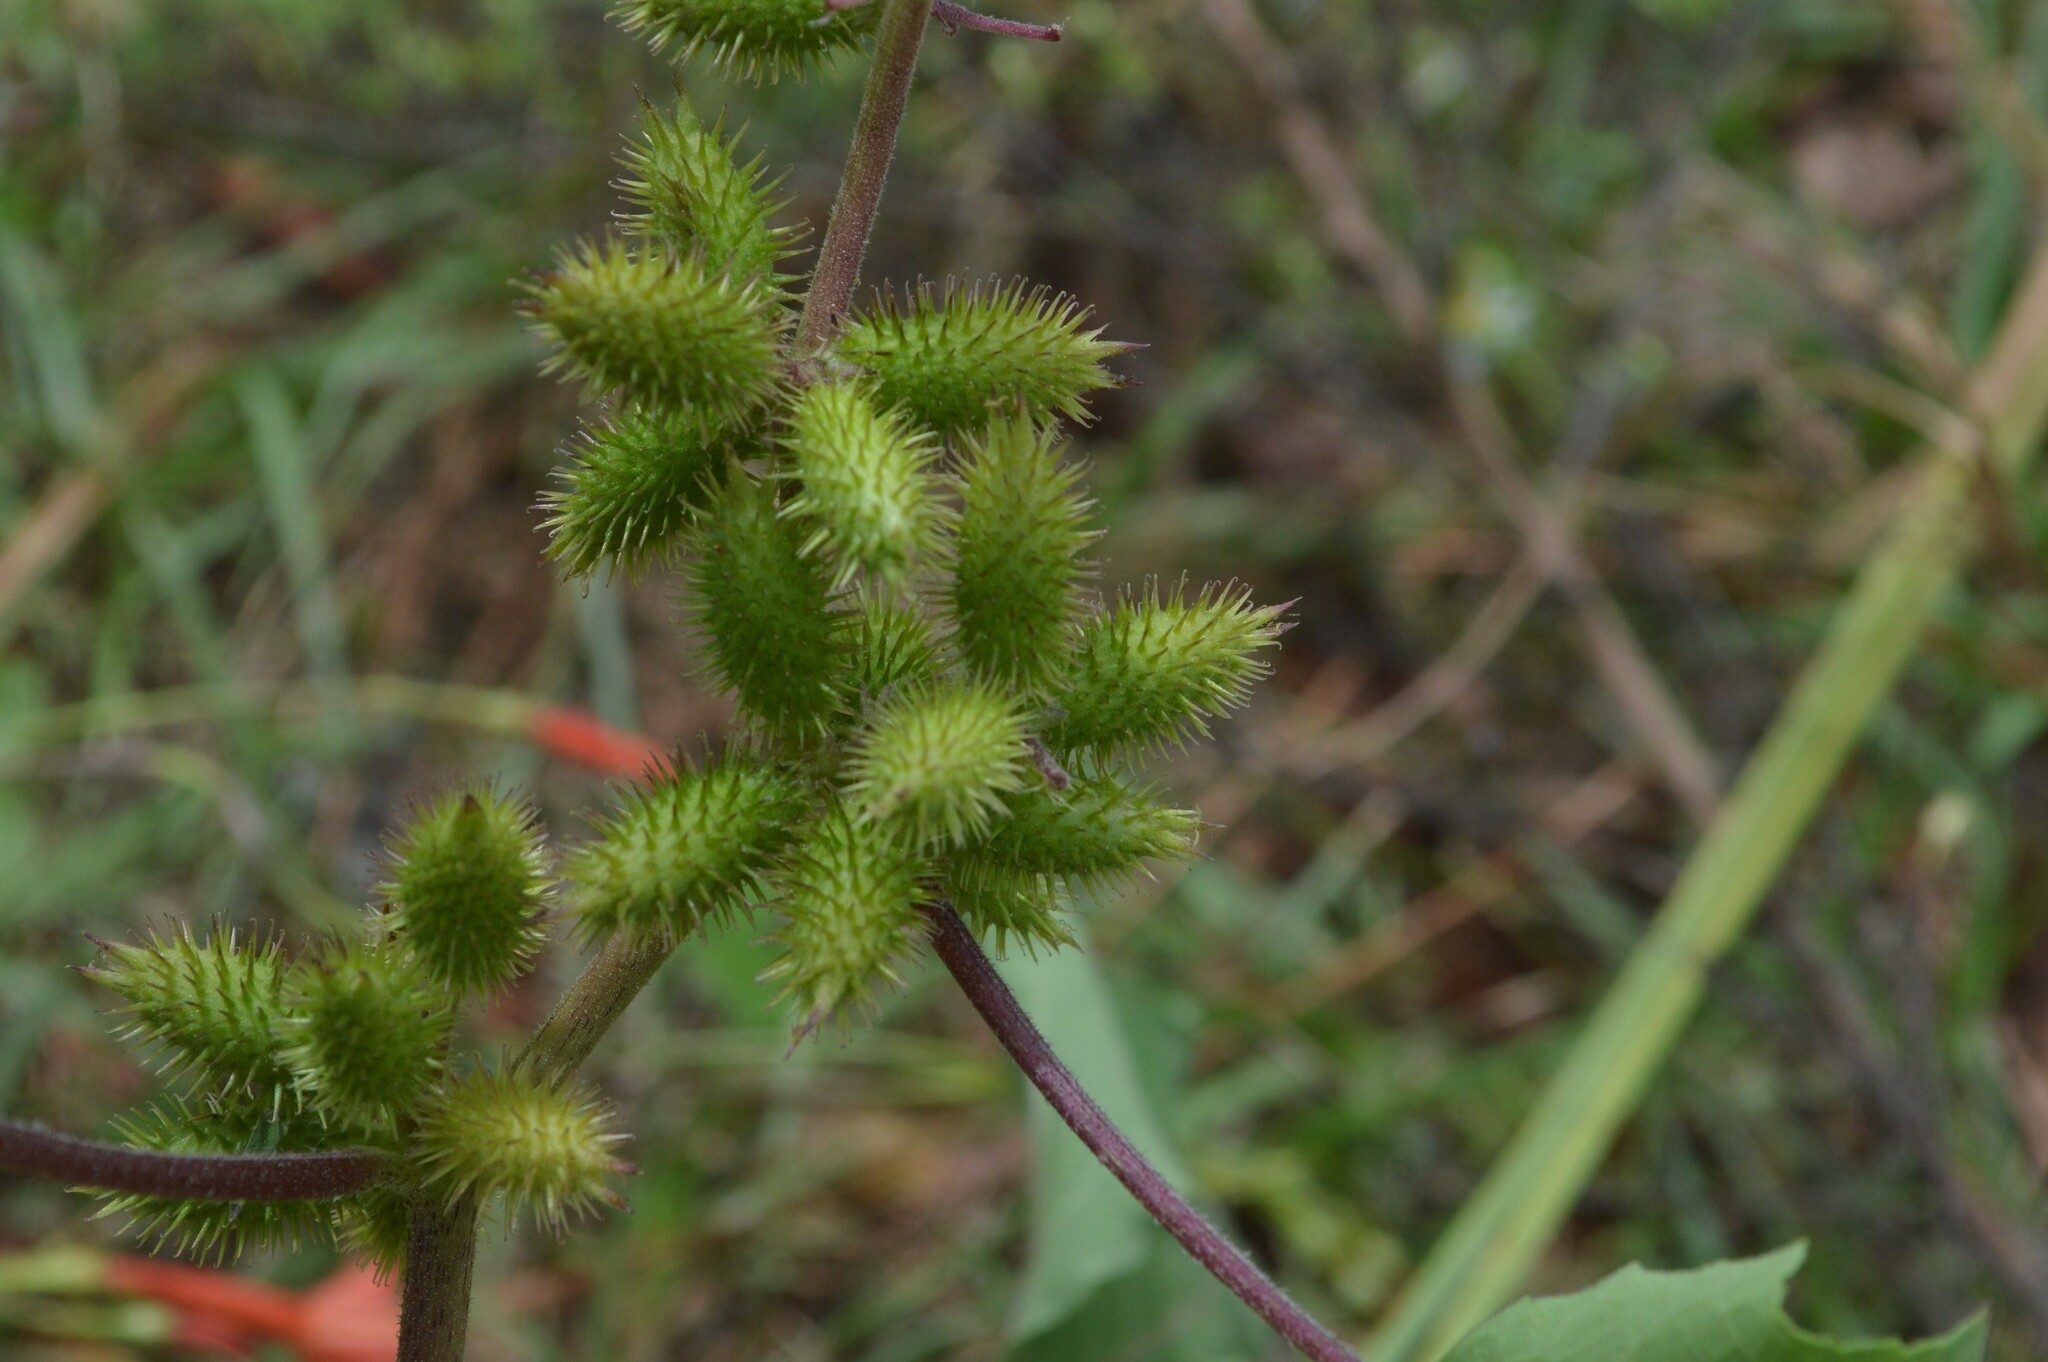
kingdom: Plantae
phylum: Tracheophyta
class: Magnoliopsida
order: Asterales
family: Asteraceae
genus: Xanthium
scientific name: Xanthium strumarium
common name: Rough cocklebur
